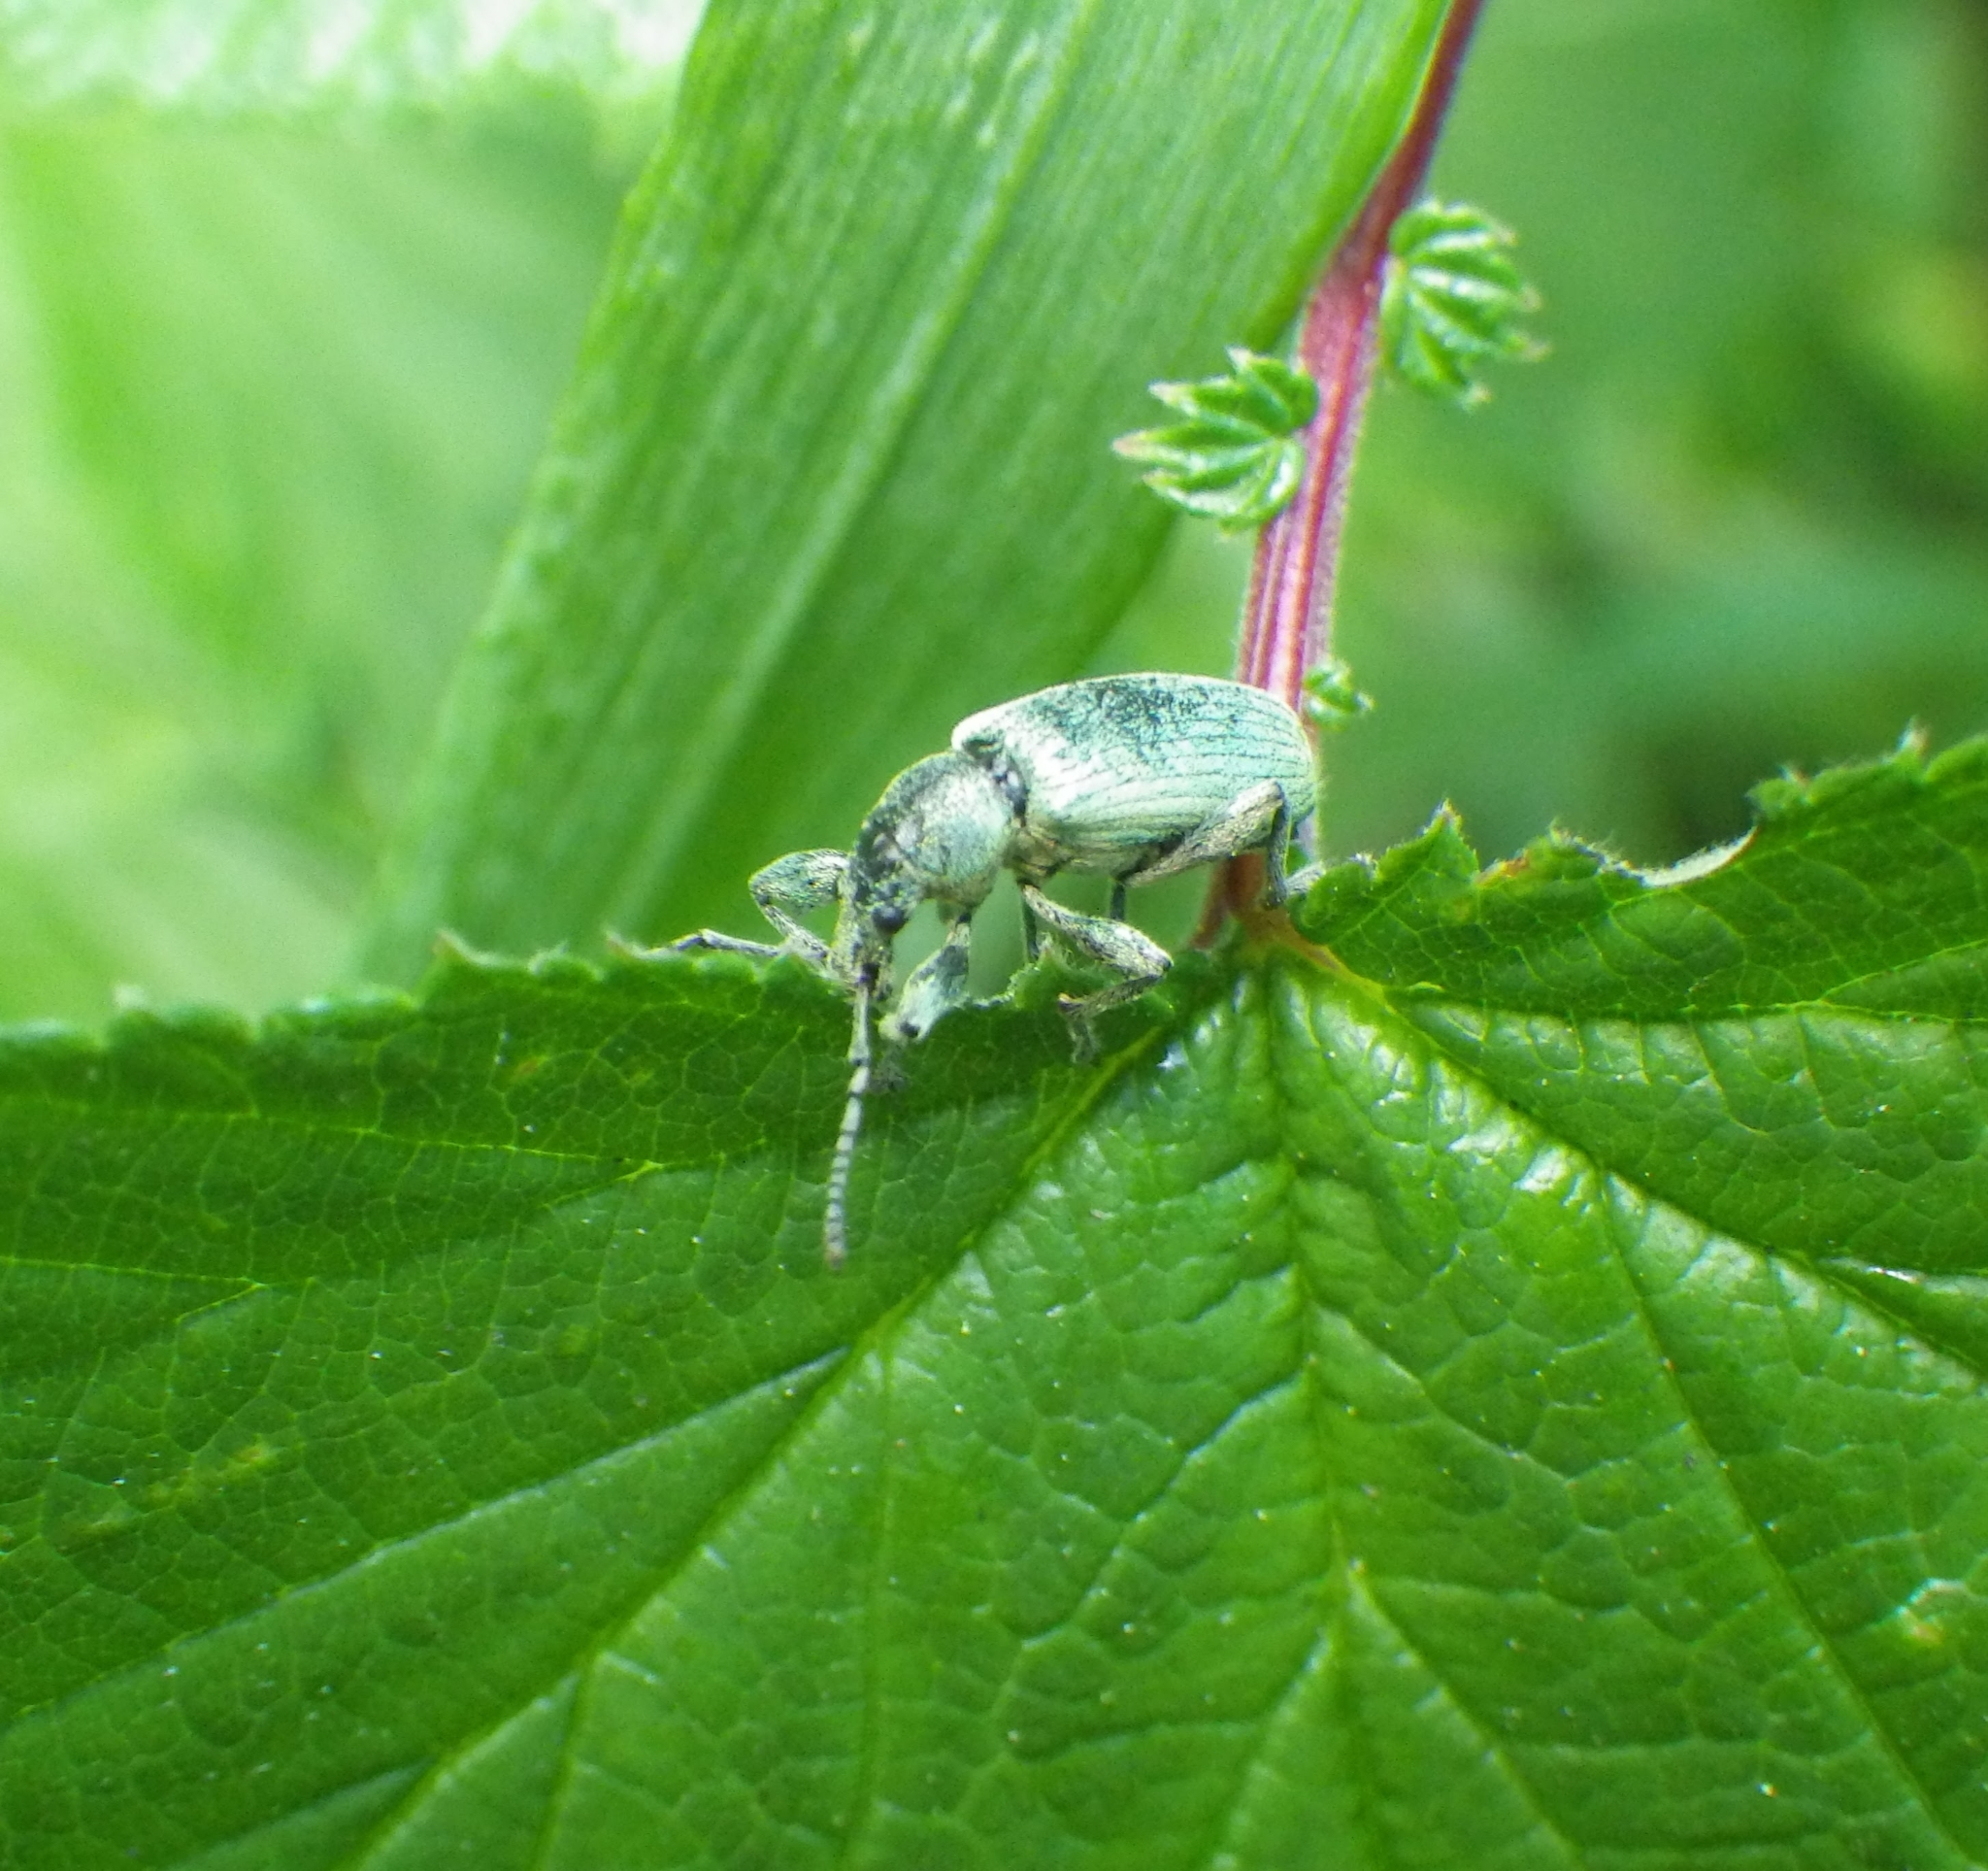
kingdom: Animalia
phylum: Arthropoda
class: Insecta
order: Coleoptera
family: Curculionidae
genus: Phyllobius
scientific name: Phyllobius pomaceus
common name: Green nettle weevil
